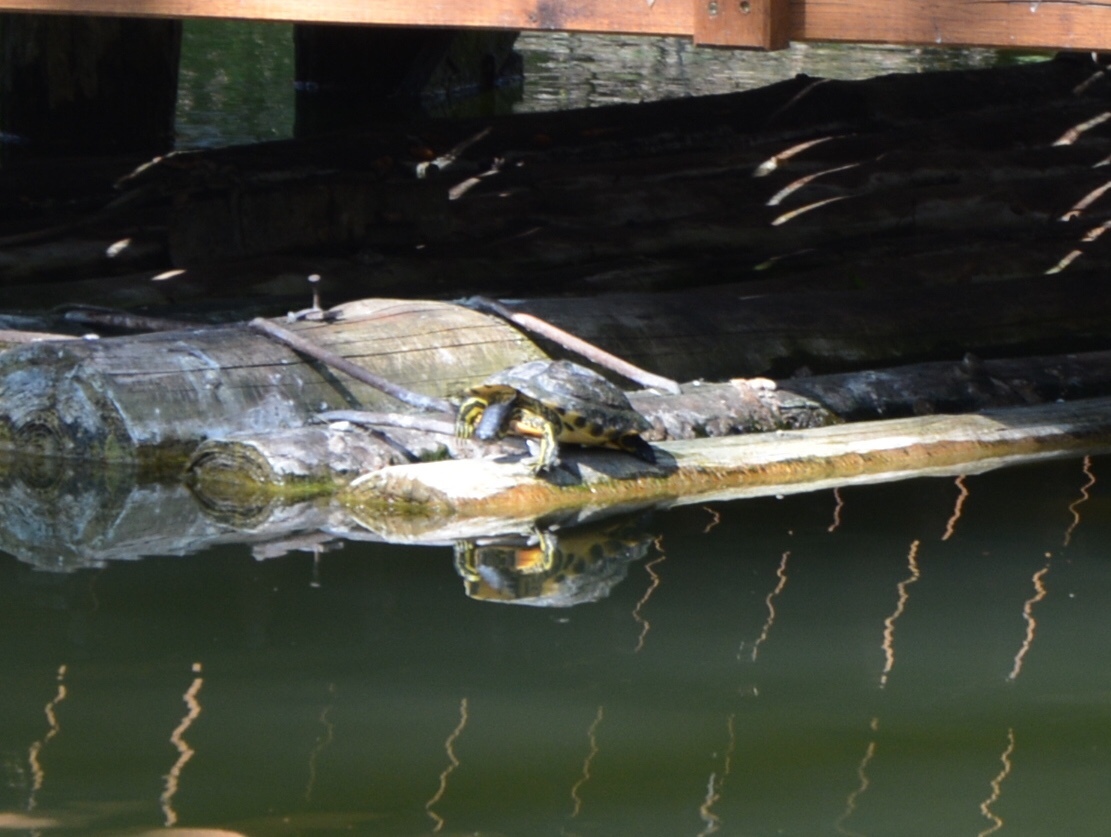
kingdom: Animalia
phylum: Chordata
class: Testudines
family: Emydidae
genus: Trachemys
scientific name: Trachemys scripta
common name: Slider
